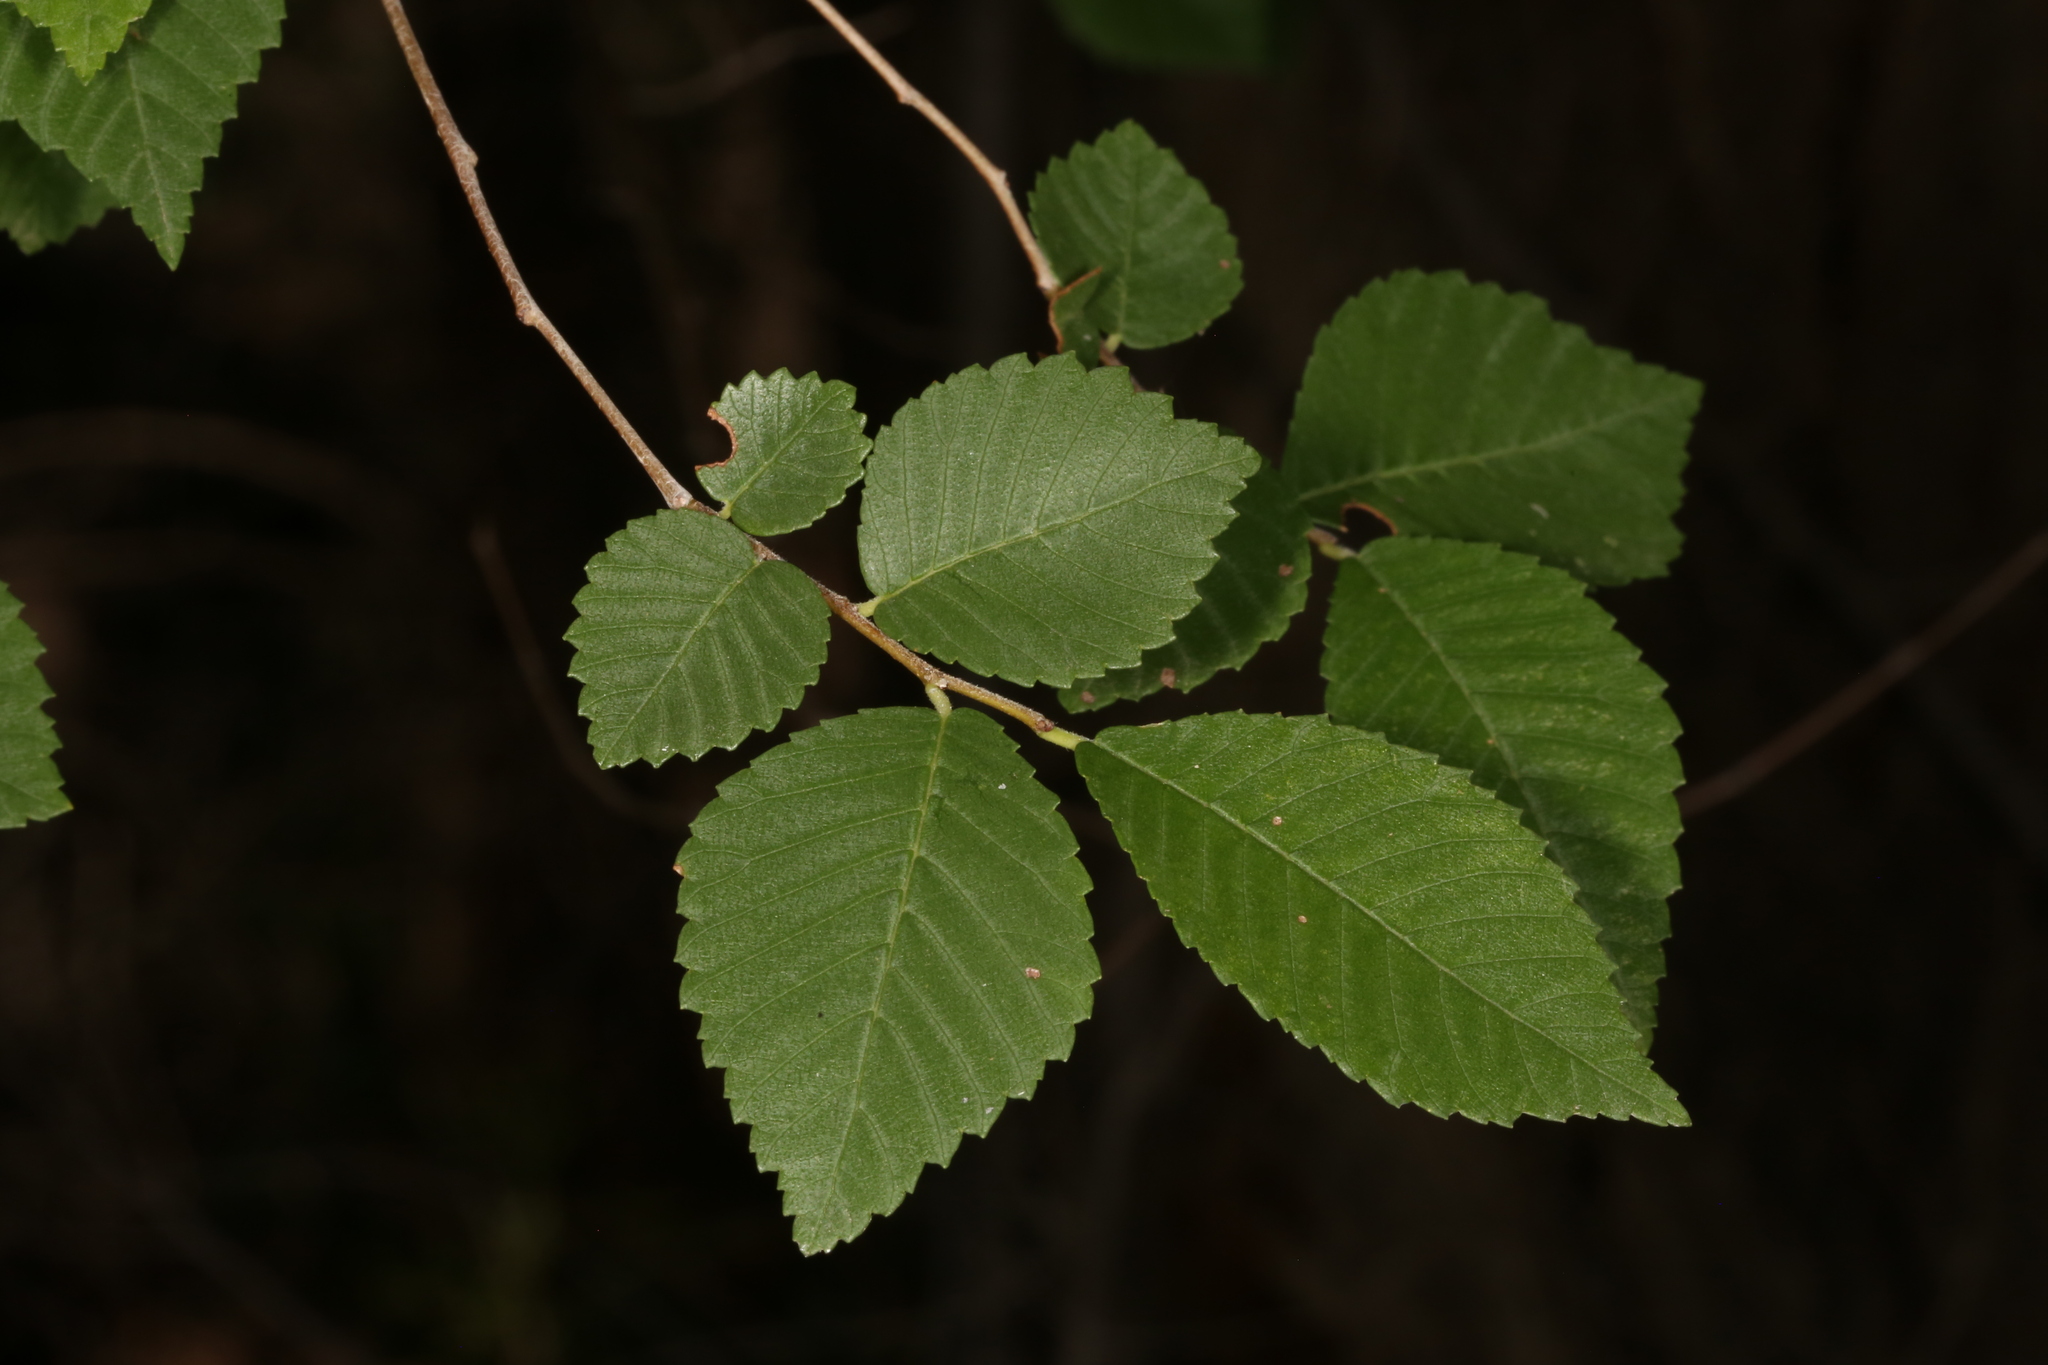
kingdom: Plantae
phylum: Tracheophyta
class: Magnoliopsida
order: Rosales
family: Ulmaceae
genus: Ulmus
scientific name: Ulmus pumila
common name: Siberian elm
